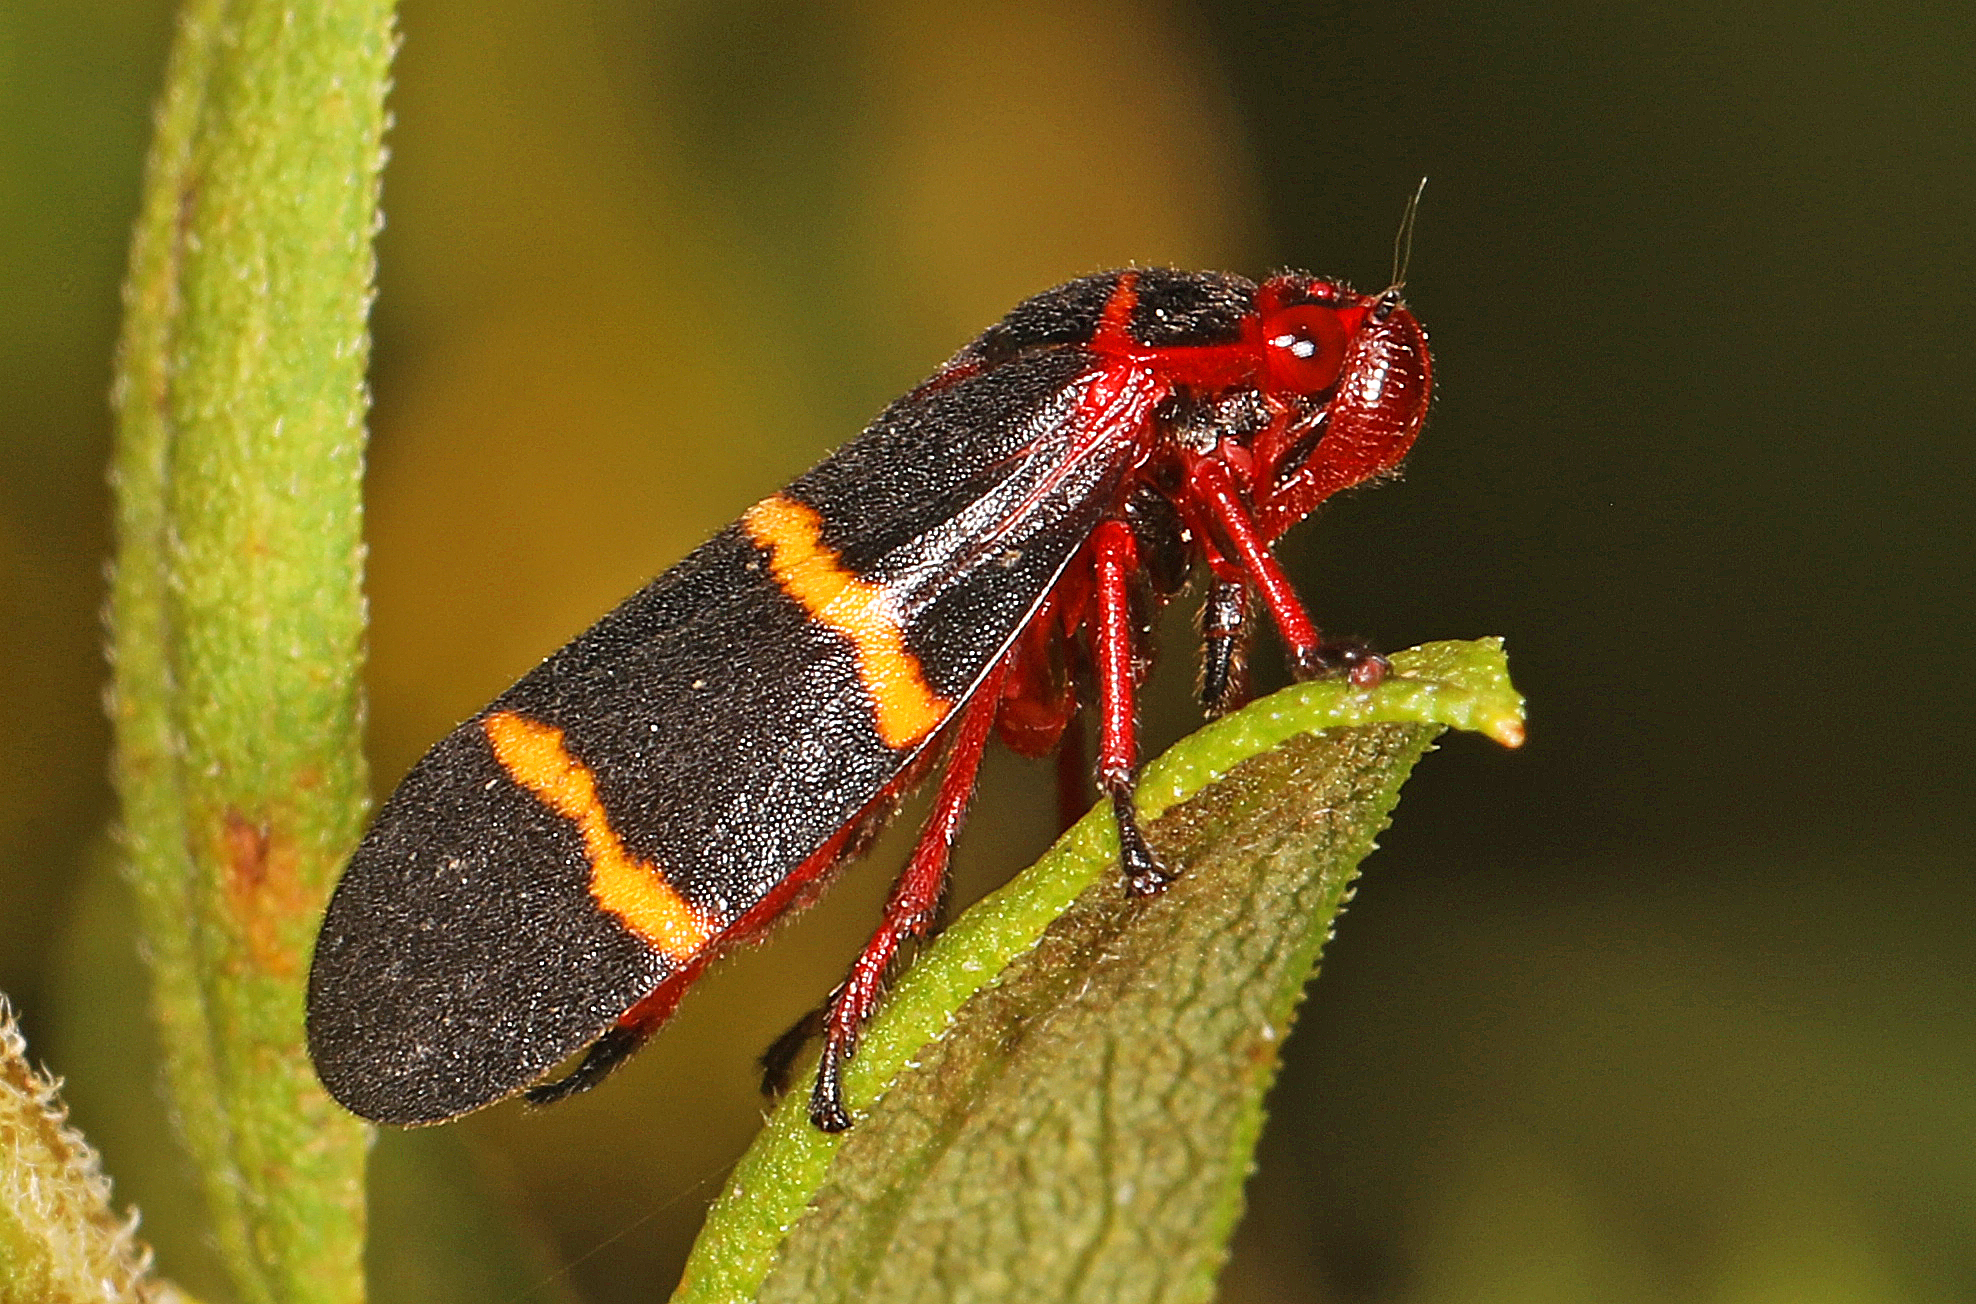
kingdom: Animalia
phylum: Arthropoda
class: Insecta
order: Hemiptera
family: Cercopidae
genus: Prosapia
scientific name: Prosapia bicincta
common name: Twolined spittlebug
